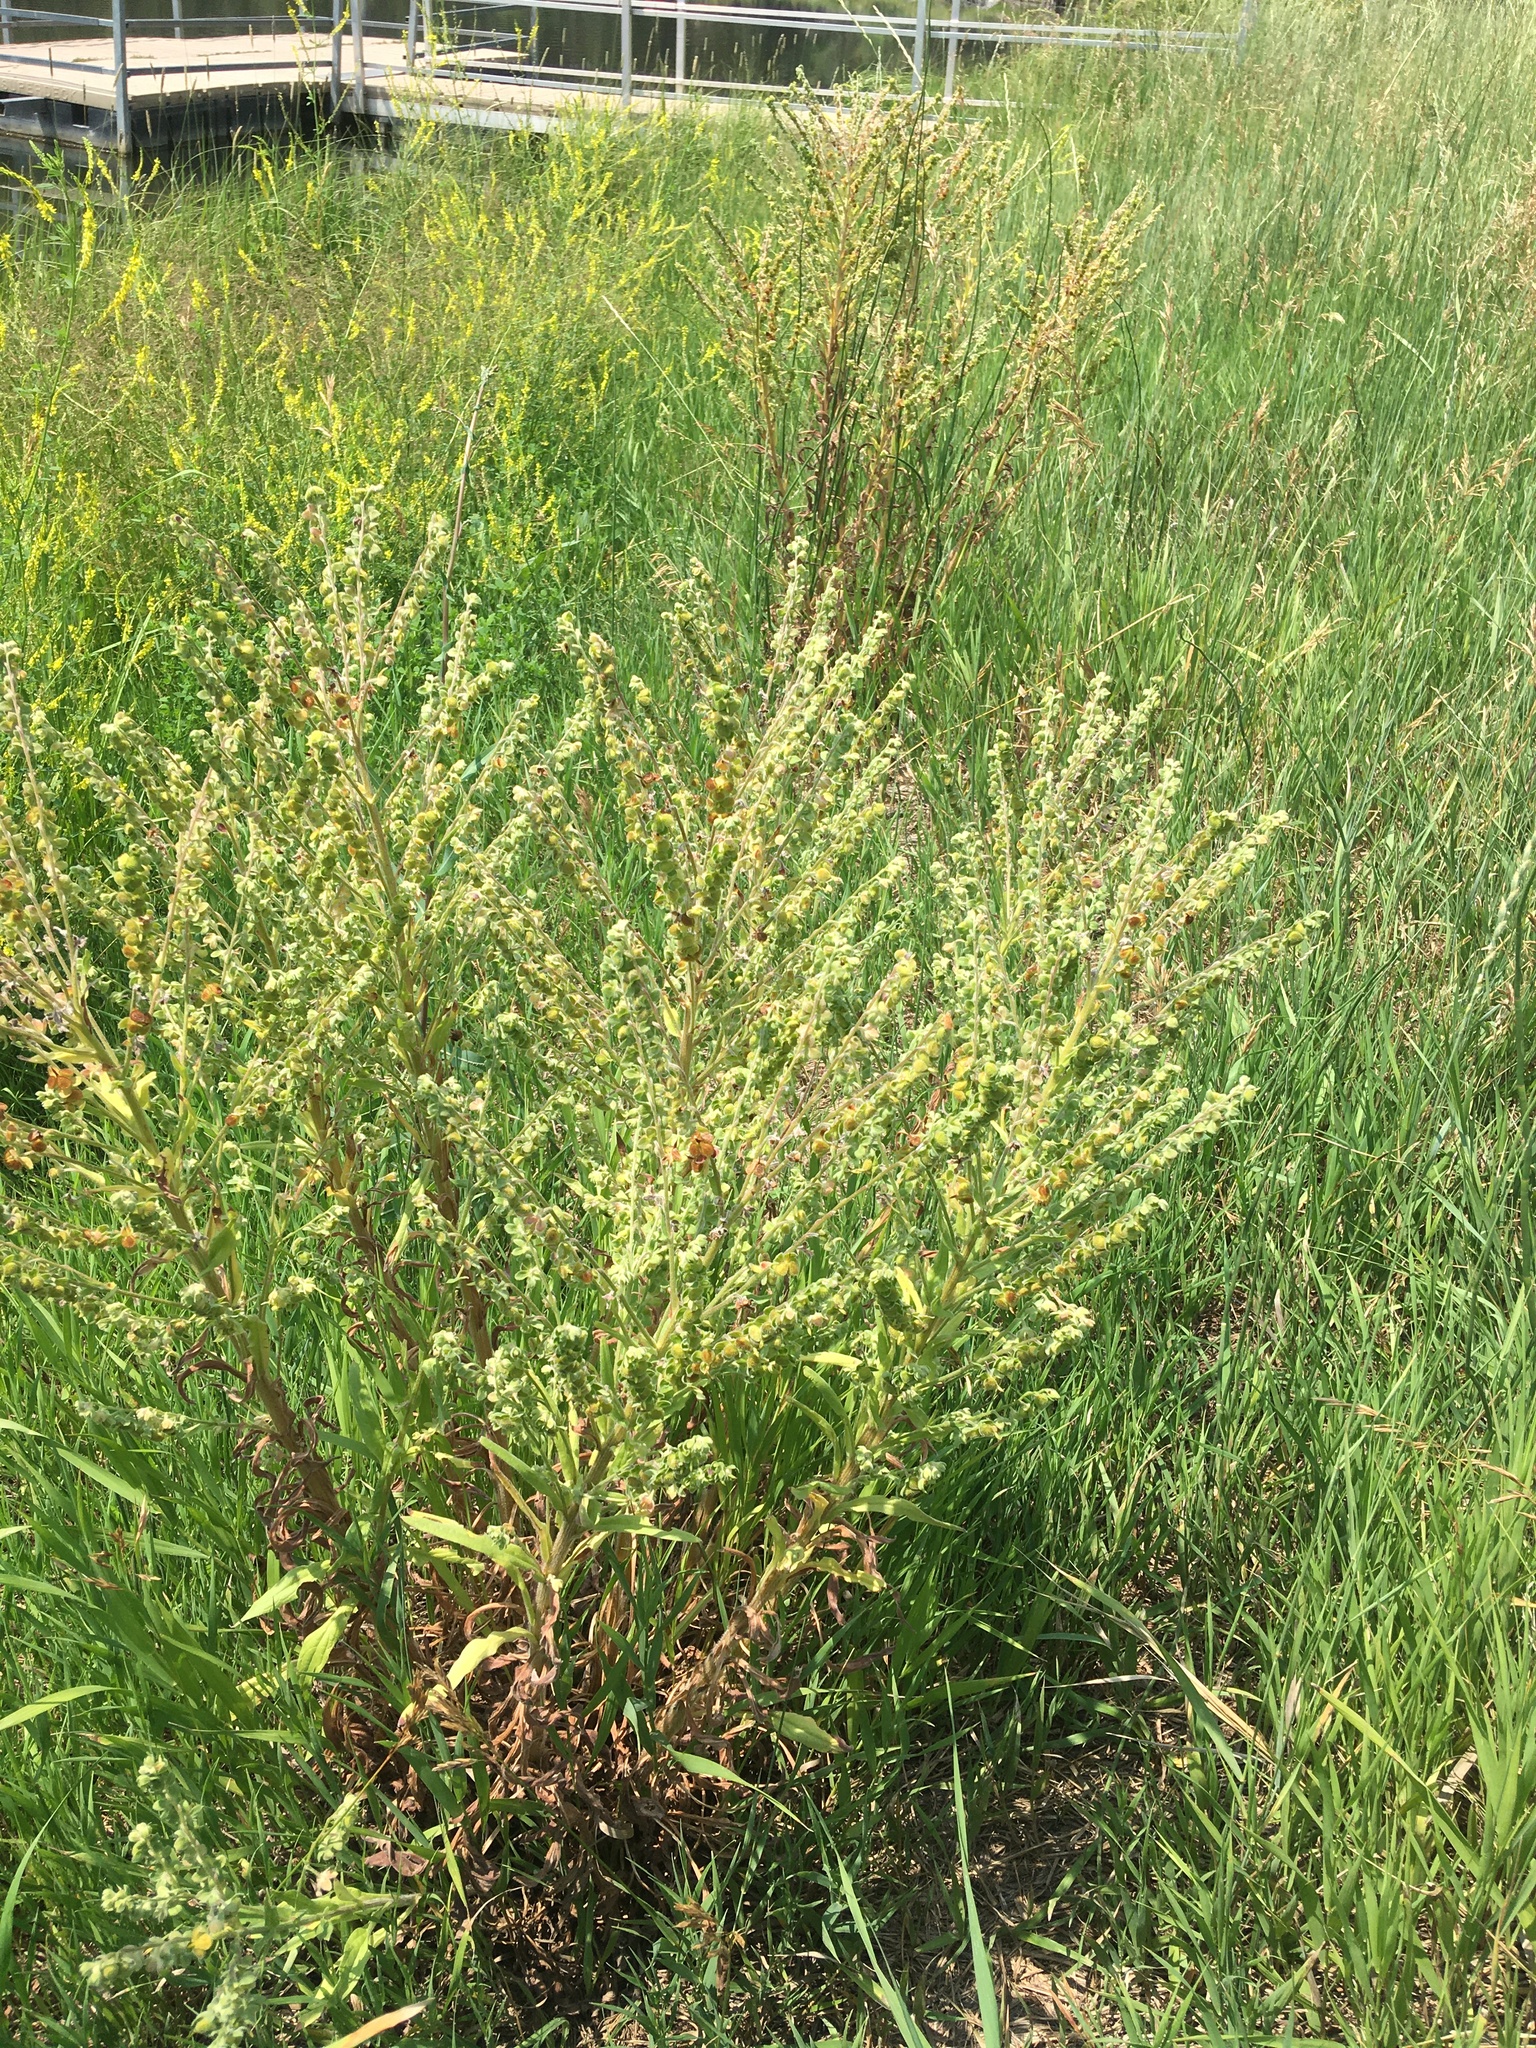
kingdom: Plantae
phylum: Tracheophyta
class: Magnoliopsida
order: Boraginales
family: Boraginaceae
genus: Cynoglossum
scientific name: Cynoglossum officinale
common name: Hound's-tongue
